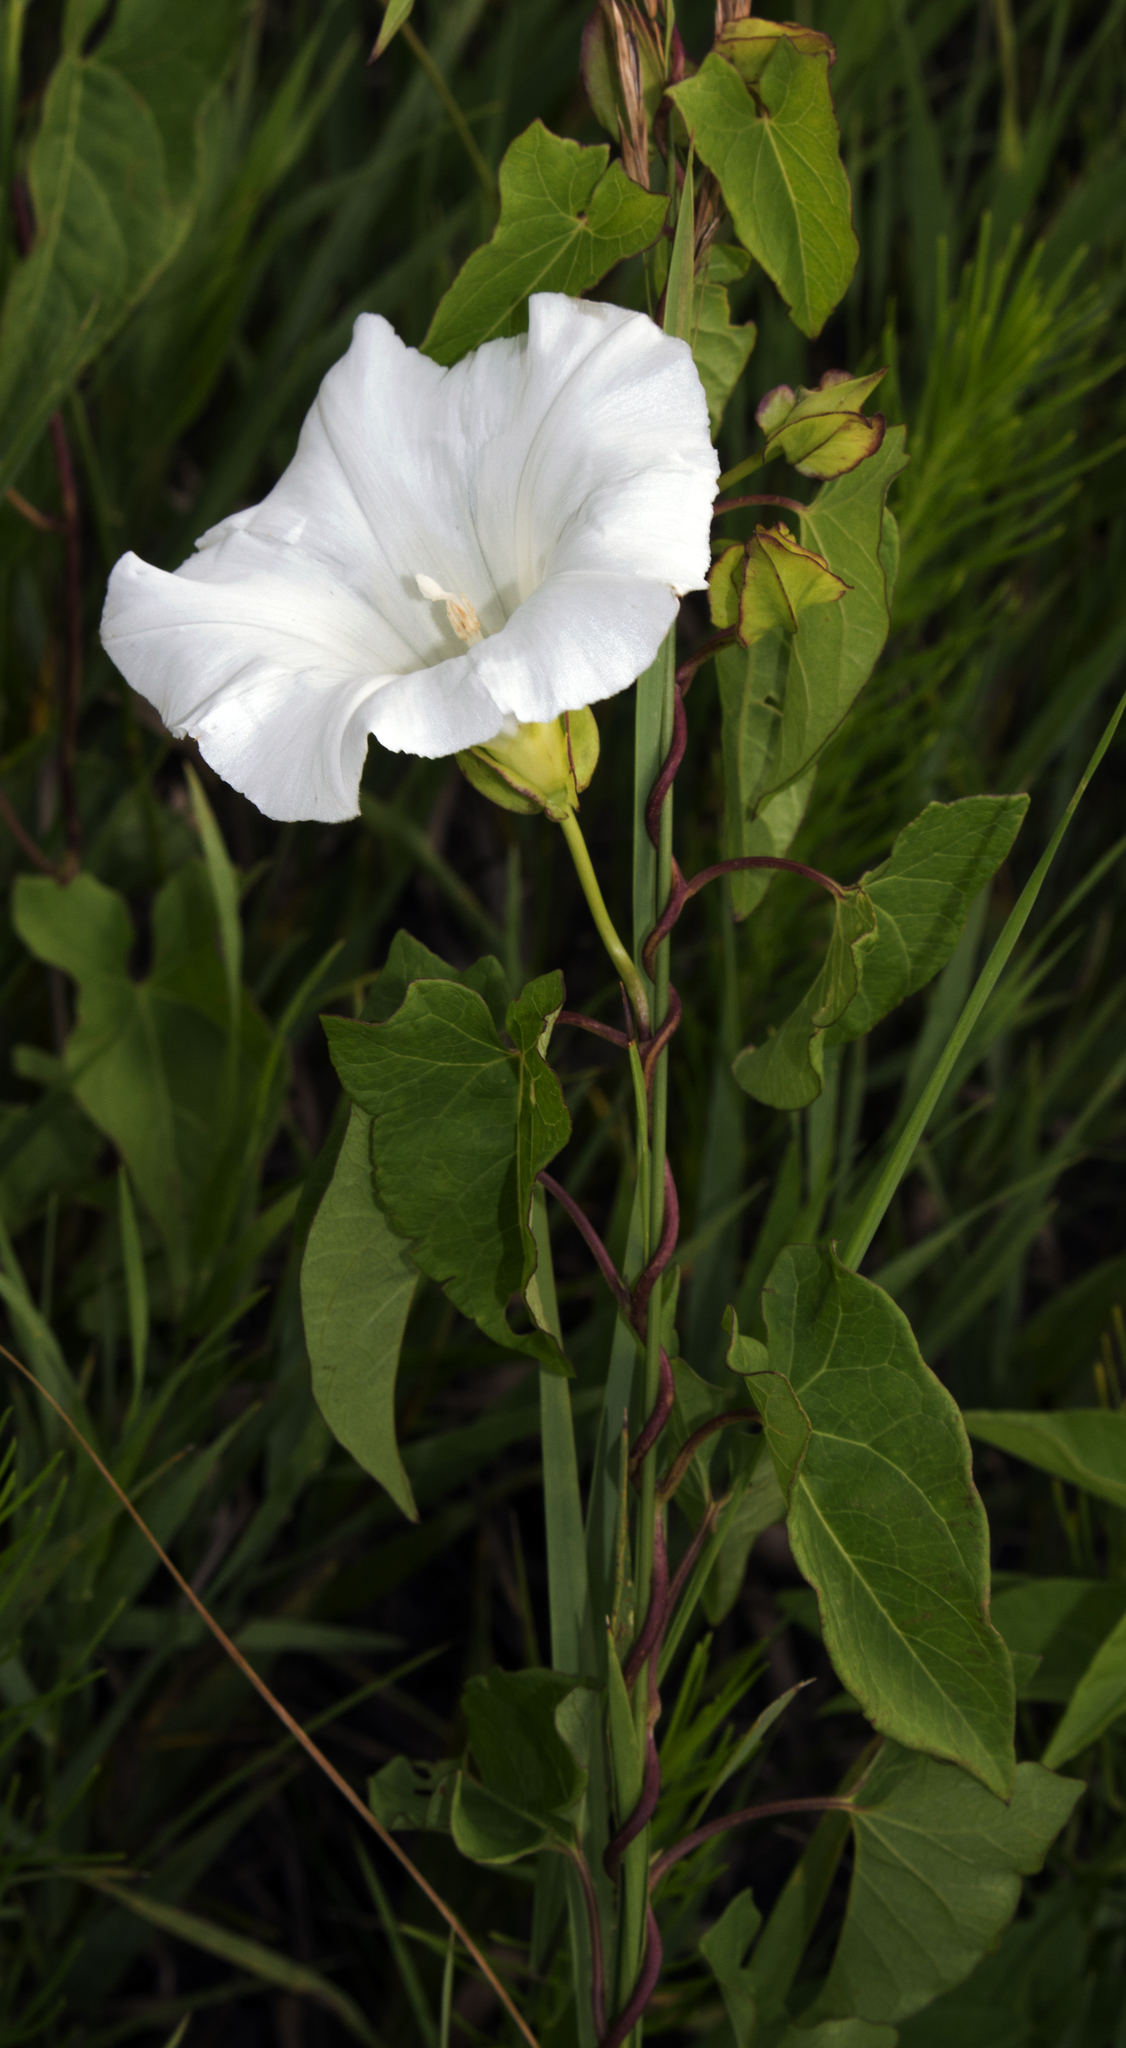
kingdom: Plantae
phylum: Tracheophyta
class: Magnoliopsida
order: Solanales
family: Convolvulaceae
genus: Calystegia
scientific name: Calystegia sepium
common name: Hedge bindweed
